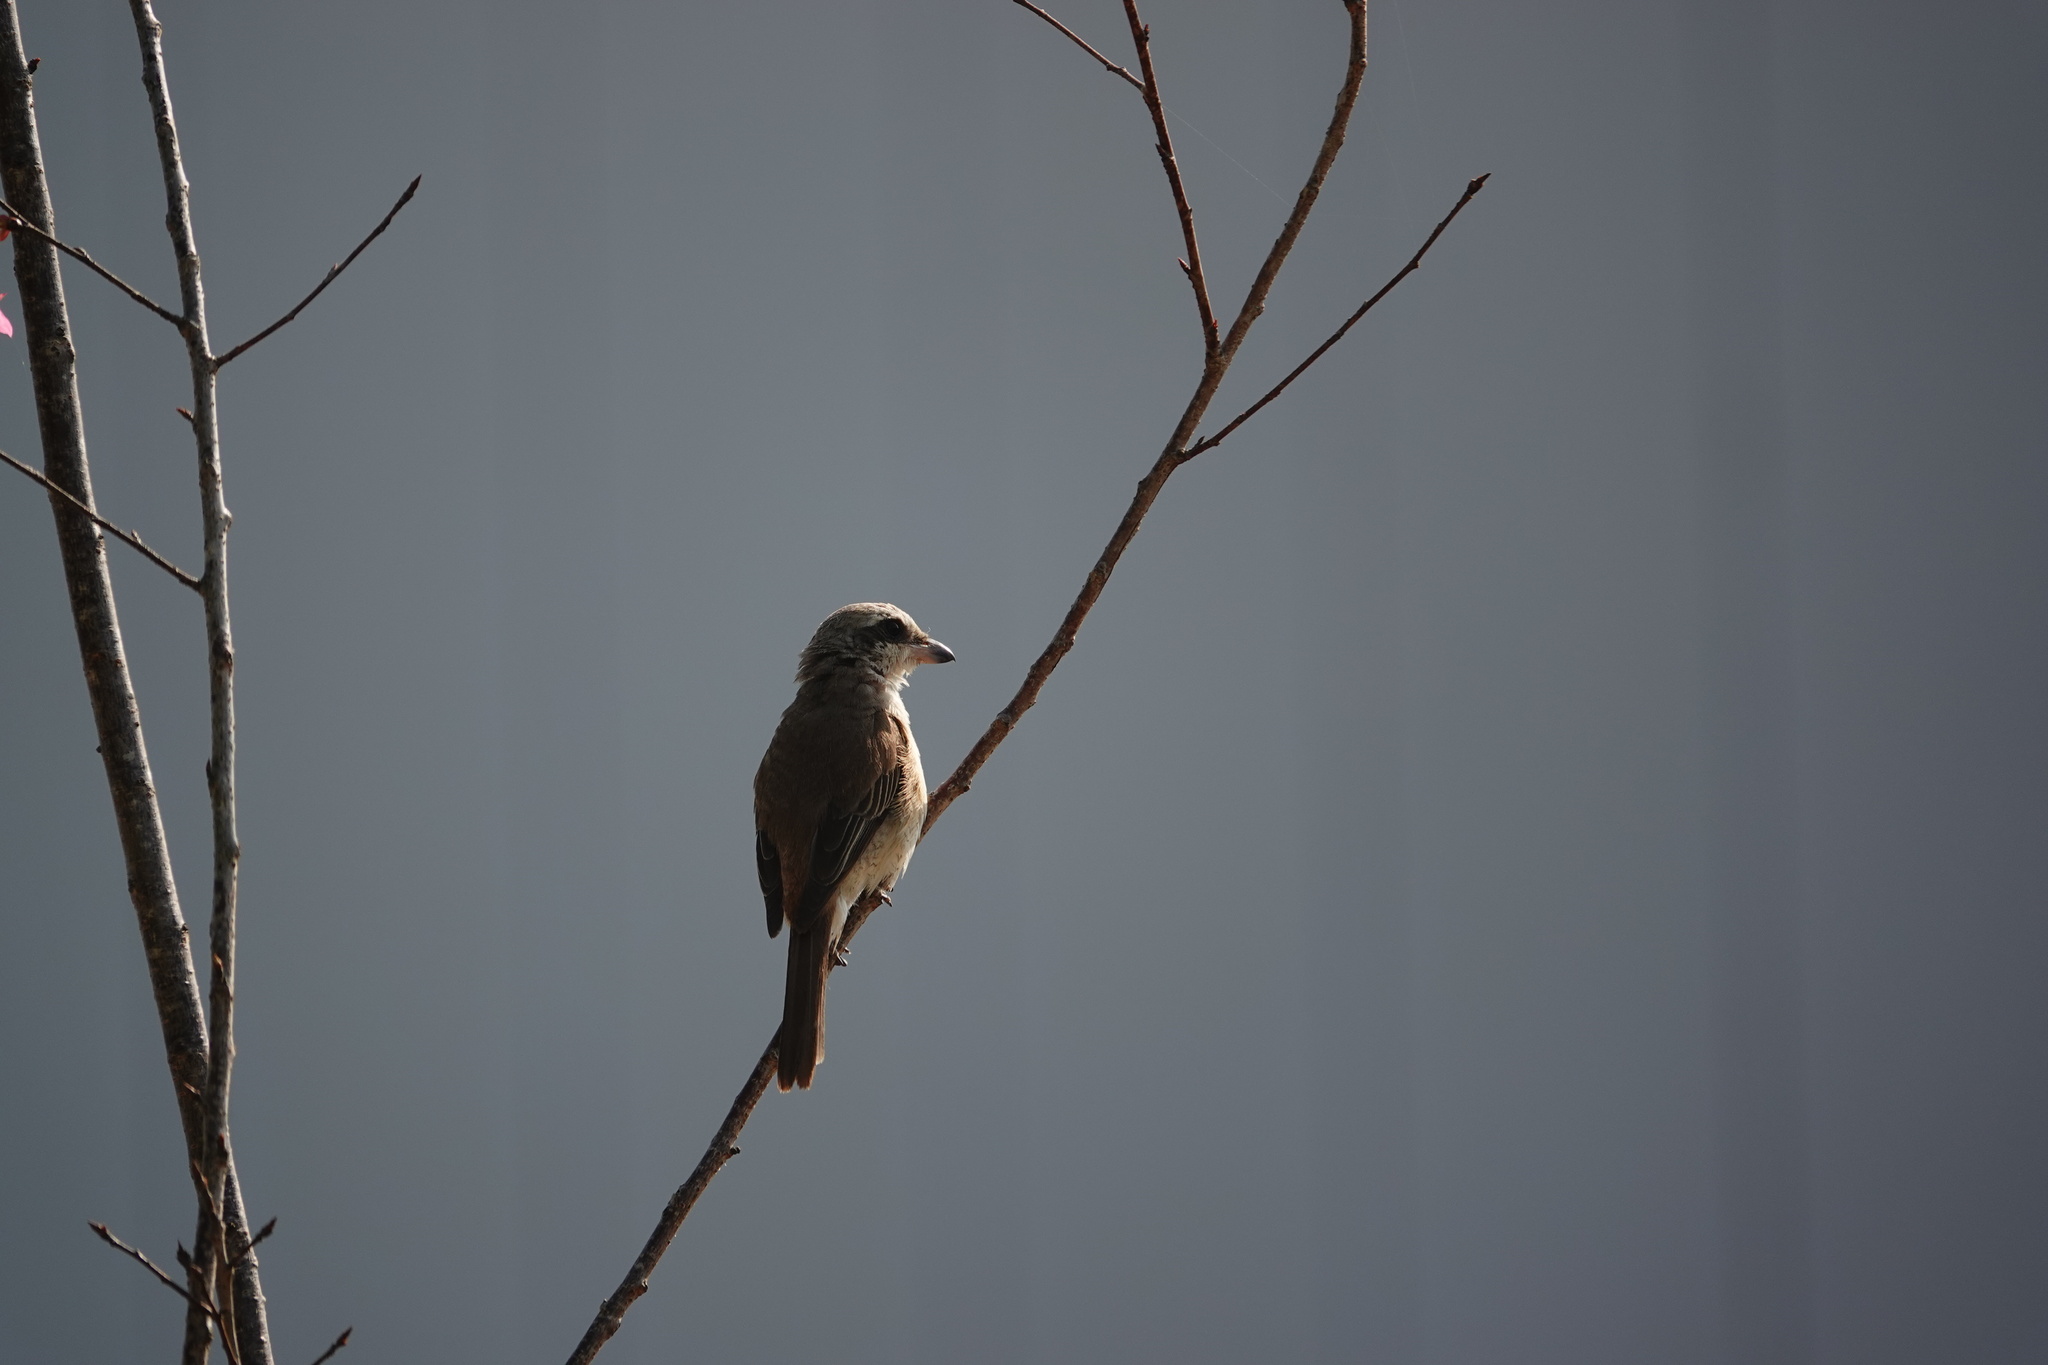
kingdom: Animalia
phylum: Chordata
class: Aves
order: Passeriformes
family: Laniidae
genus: Lanius
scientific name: Lanius cristatus
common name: Brown shrike
